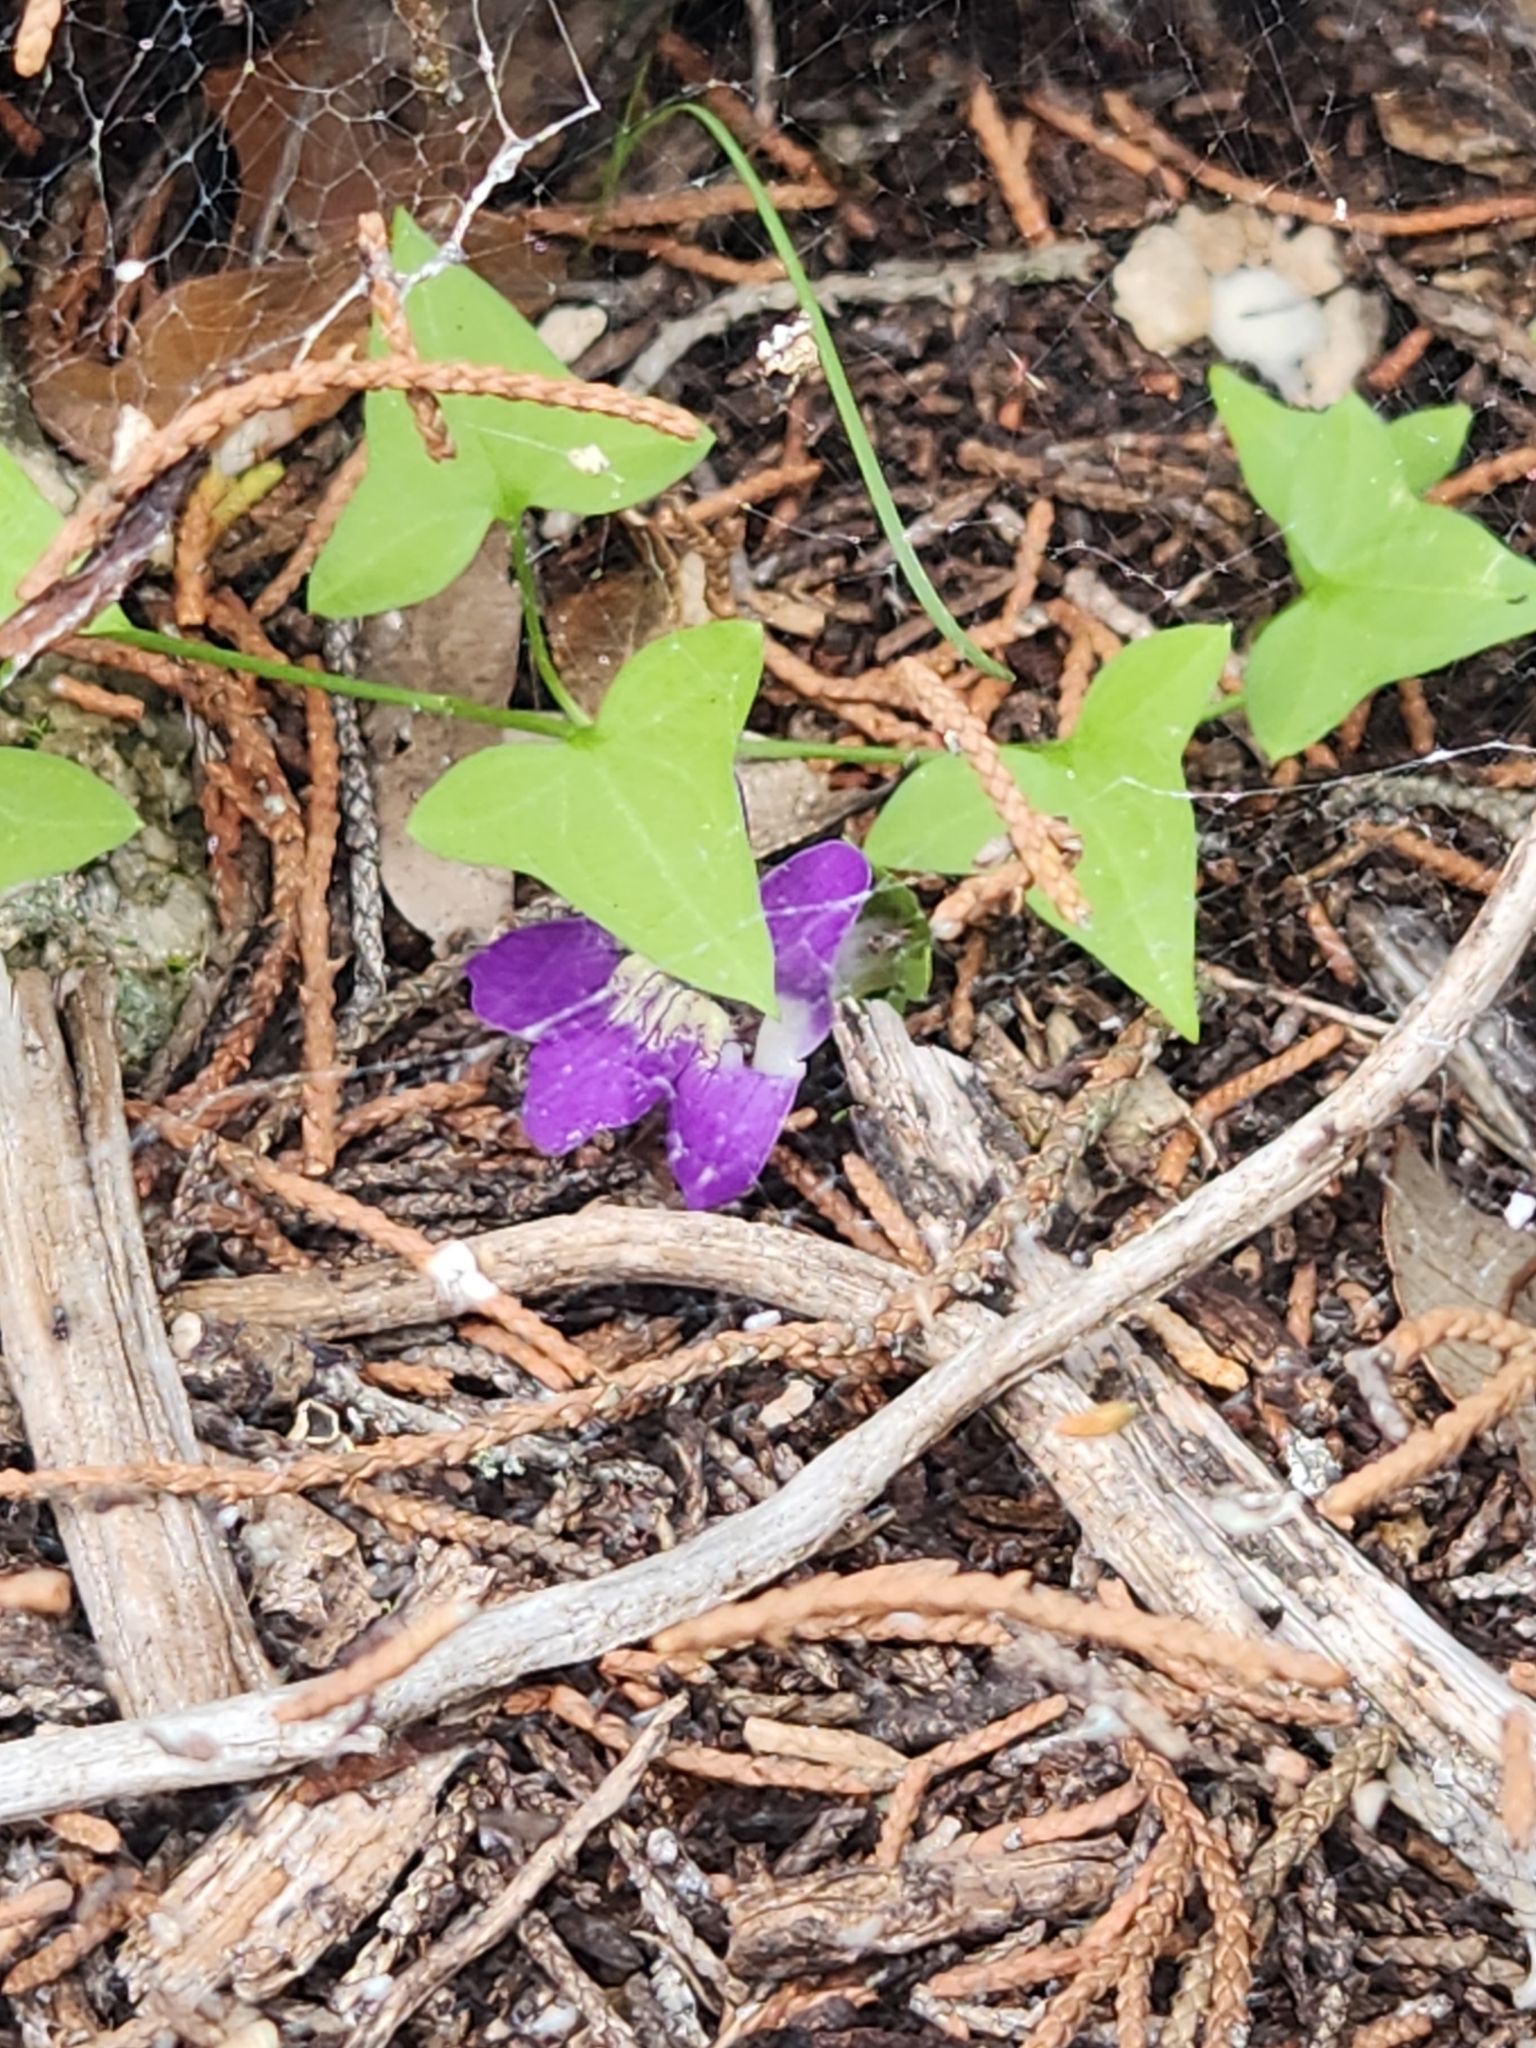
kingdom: Plantae
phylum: Tracheophyta
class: Magnoliopsida
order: Lamiales
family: Plantaginaceae
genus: Maurandella
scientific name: Maurandella antirrhiniflora
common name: Violet twining-snapdragon
